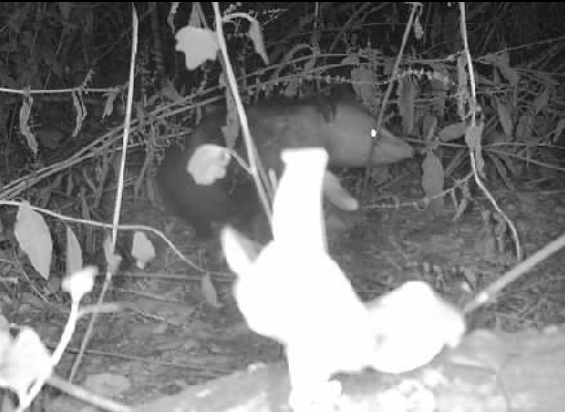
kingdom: Animalia
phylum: Chordata
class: Mammalia
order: Didelphimorphia
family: Didelphidae
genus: Didelphis
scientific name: Didelphis virginiana
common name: Virginia opossum
